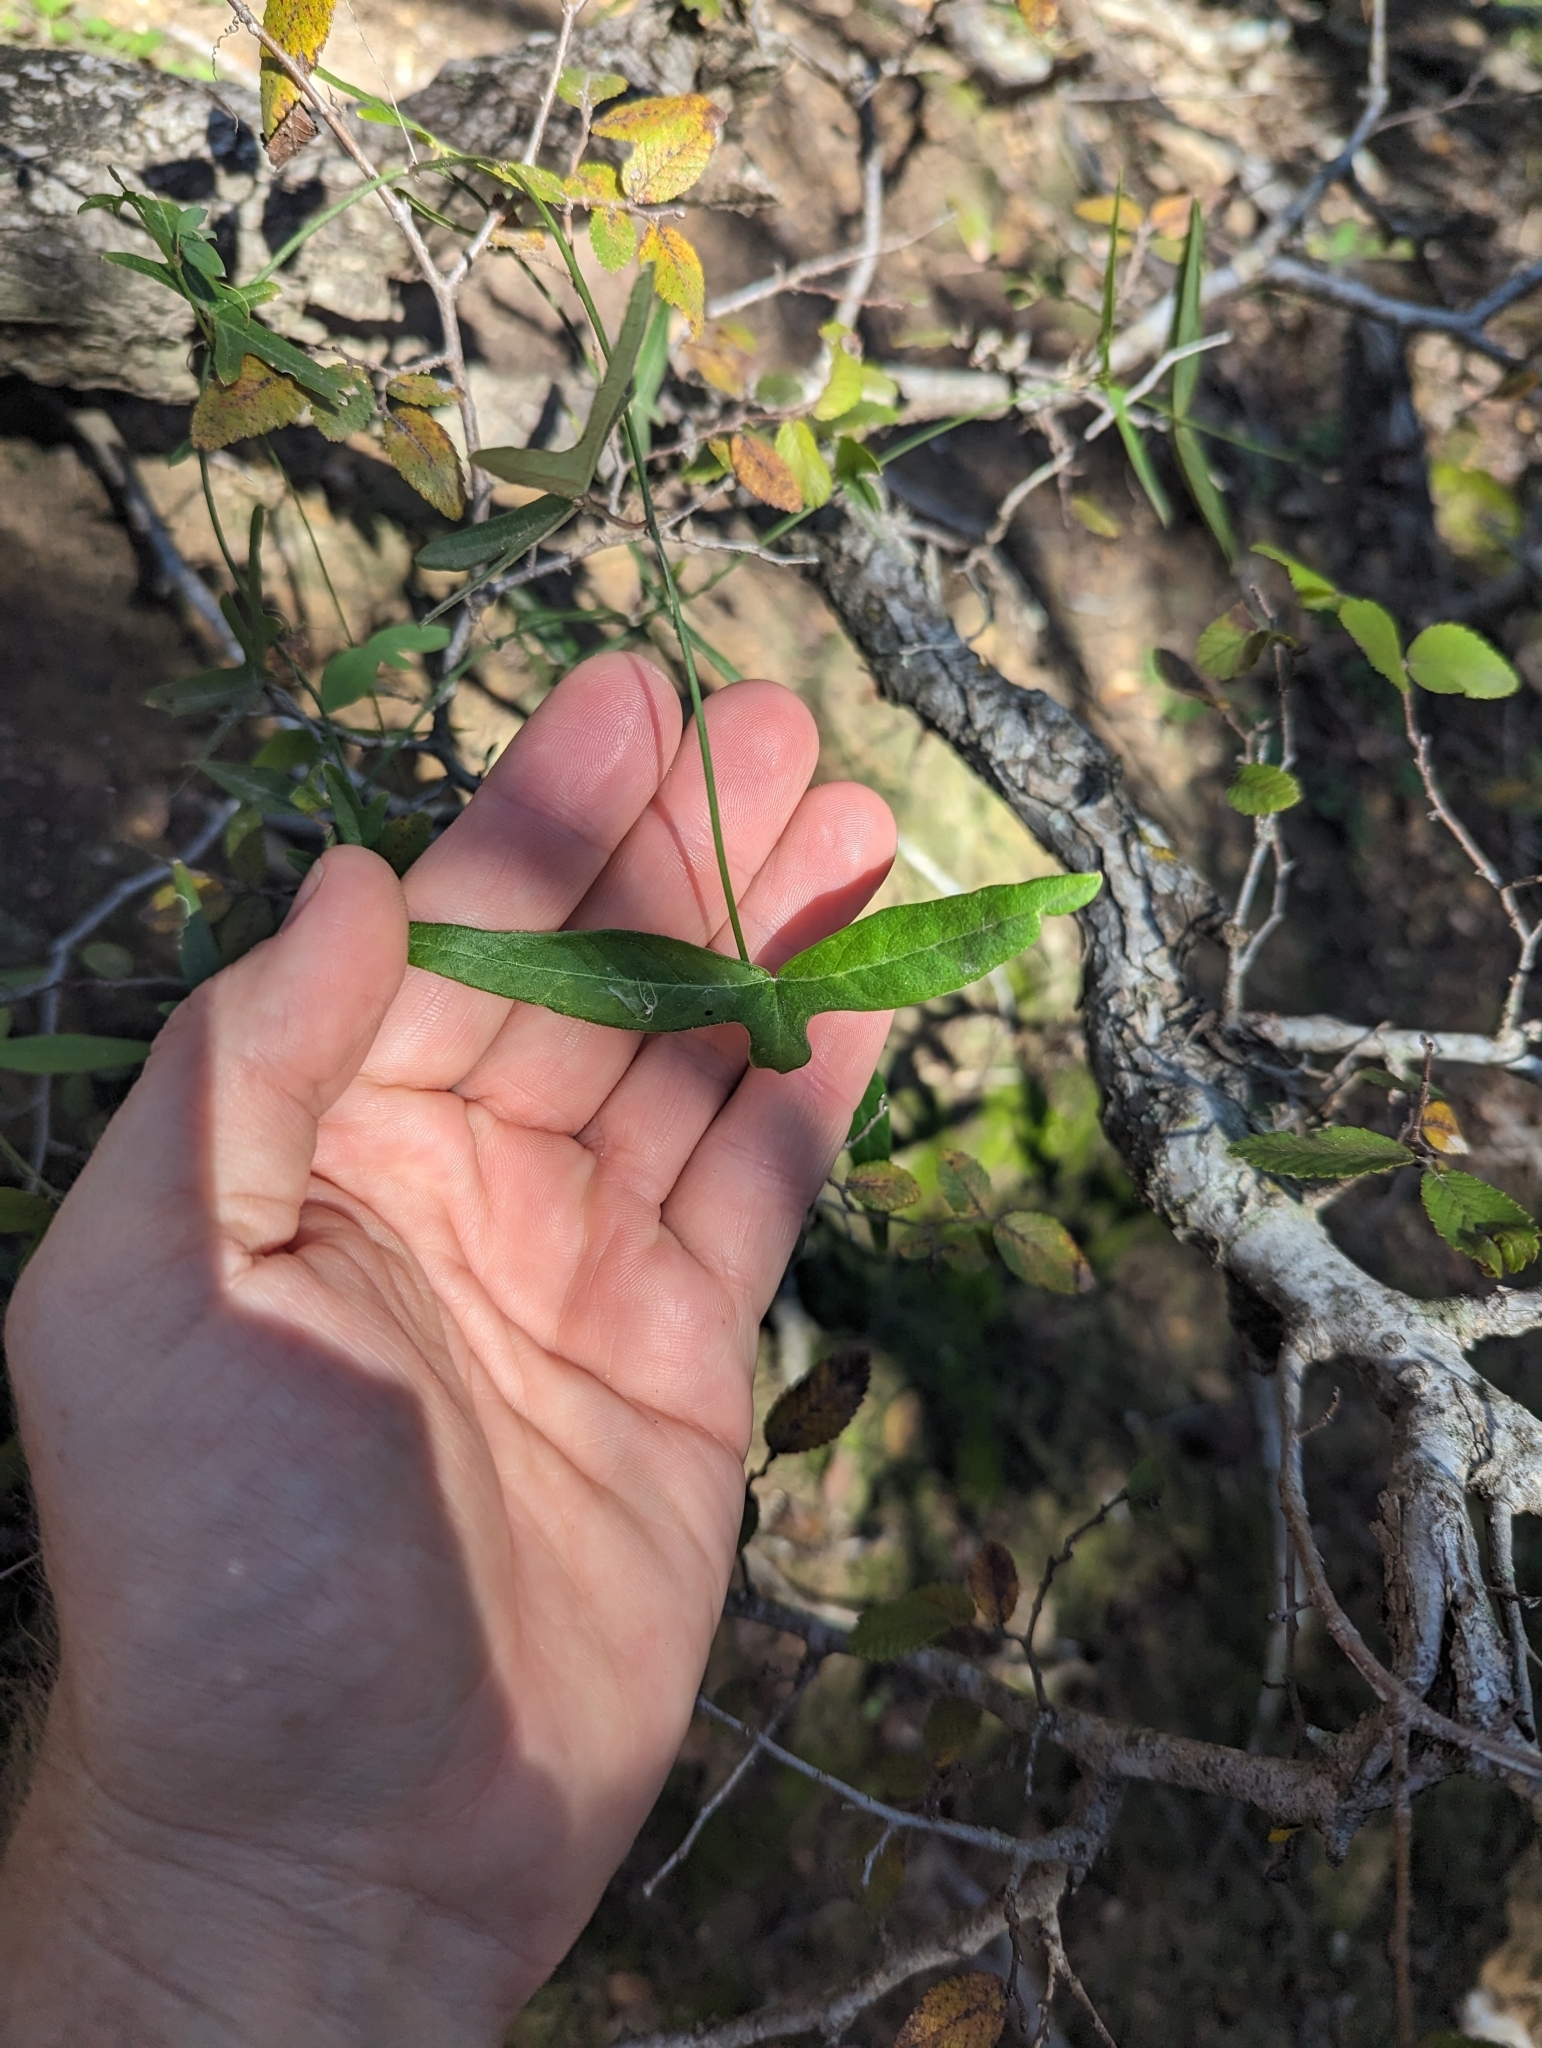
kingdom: Plantae
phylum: Tracheophyta
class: Magnoliopsida
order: Malpighiales
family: Passifloraceae
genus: Passiflora
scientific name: Passiflora tenuiloba
